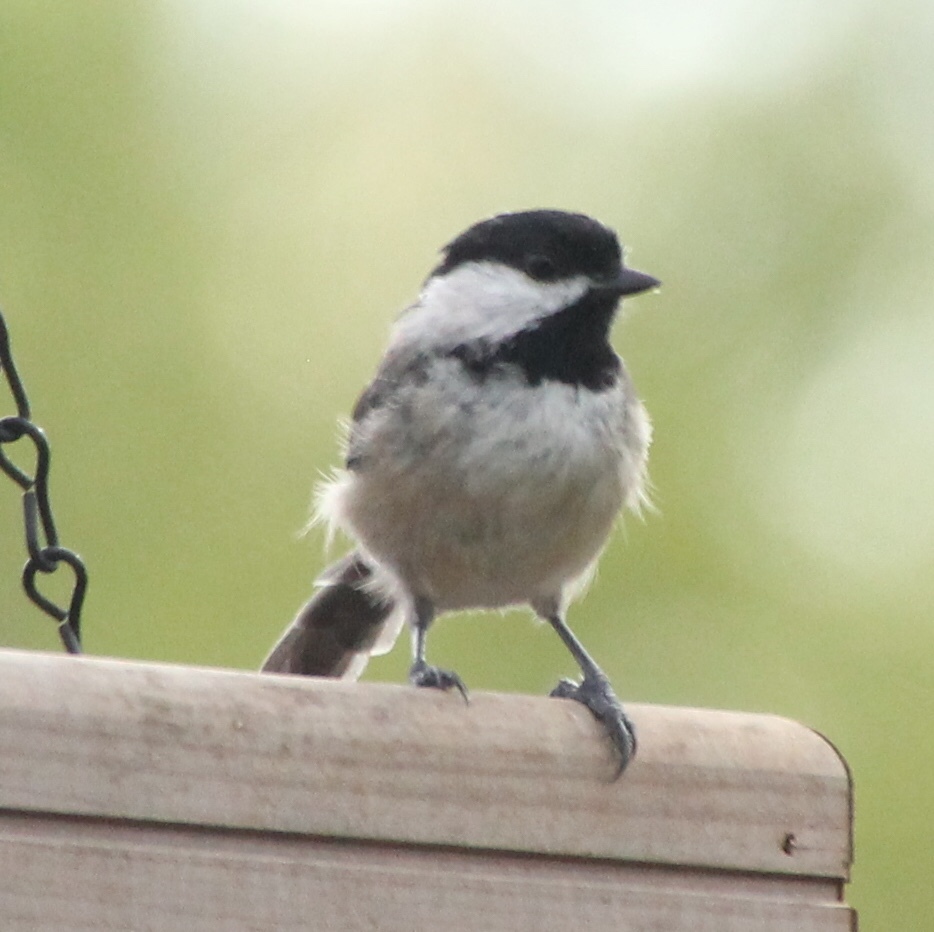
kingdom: Animalia
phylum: Chordata
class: Aves
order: Passeriformes
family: Paridae
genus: Poecile
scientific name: Poecile carolinensis
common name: Carolina chickadee
